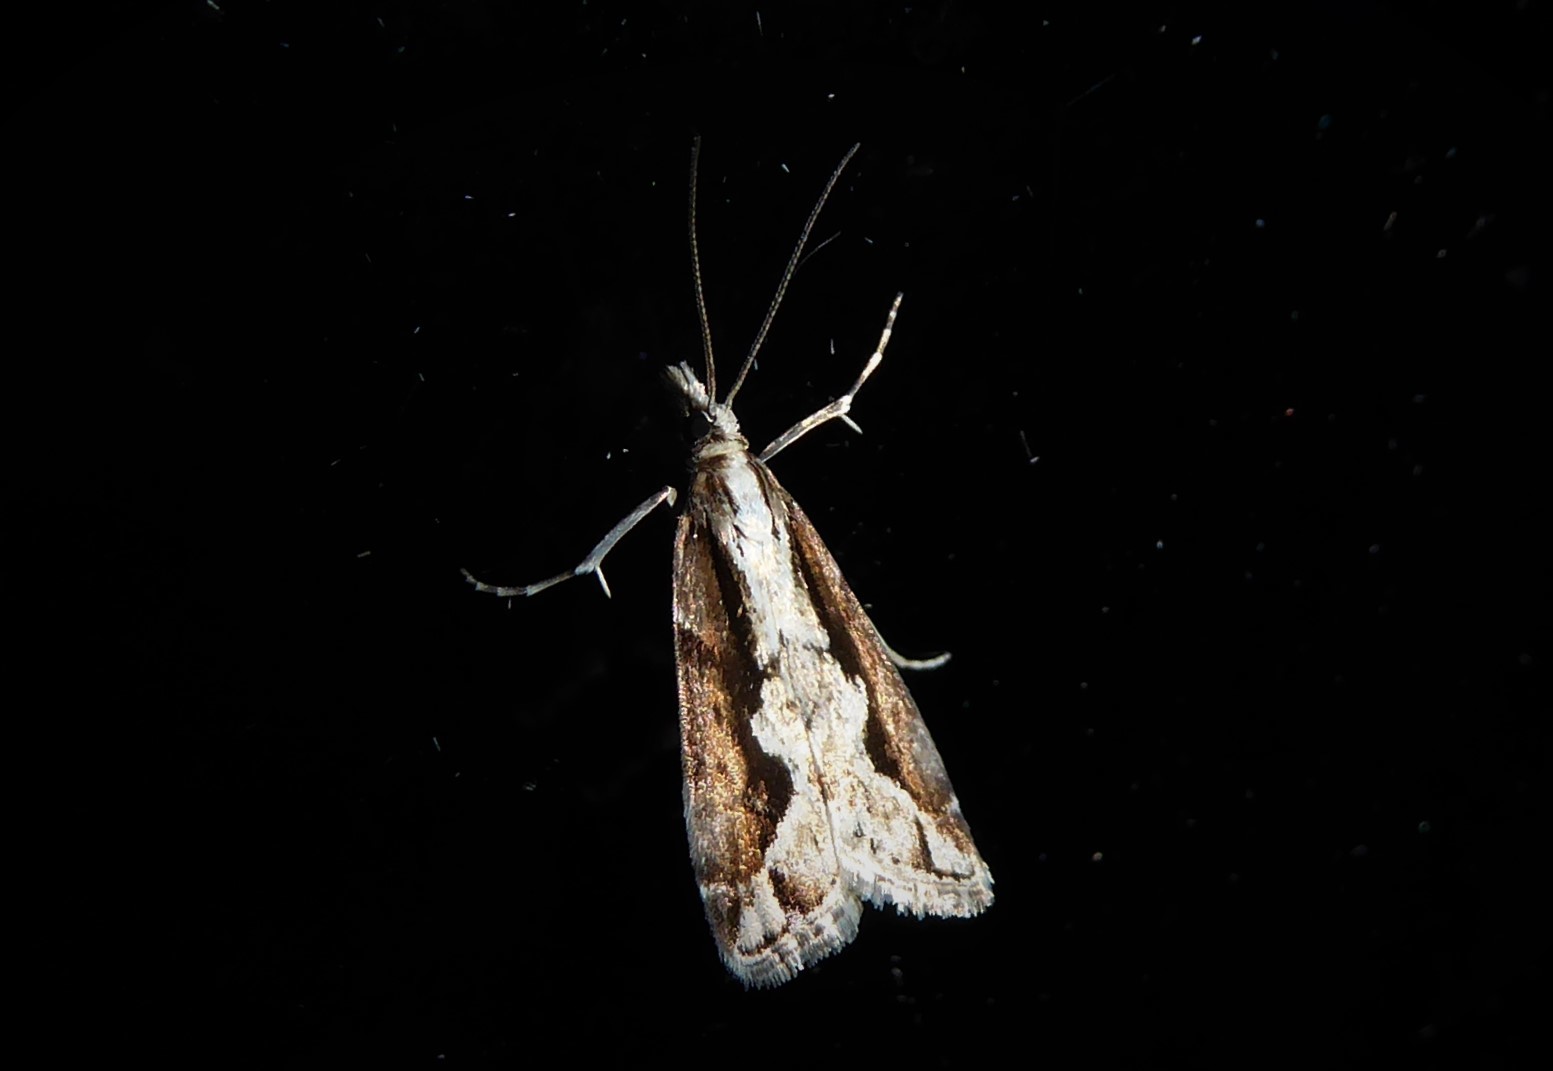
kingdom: Animalia
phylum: Arthropoda
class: Insecta
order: Lepidoptera
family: Crambidae
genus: Eudonia
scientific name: Eudonia steropaea
